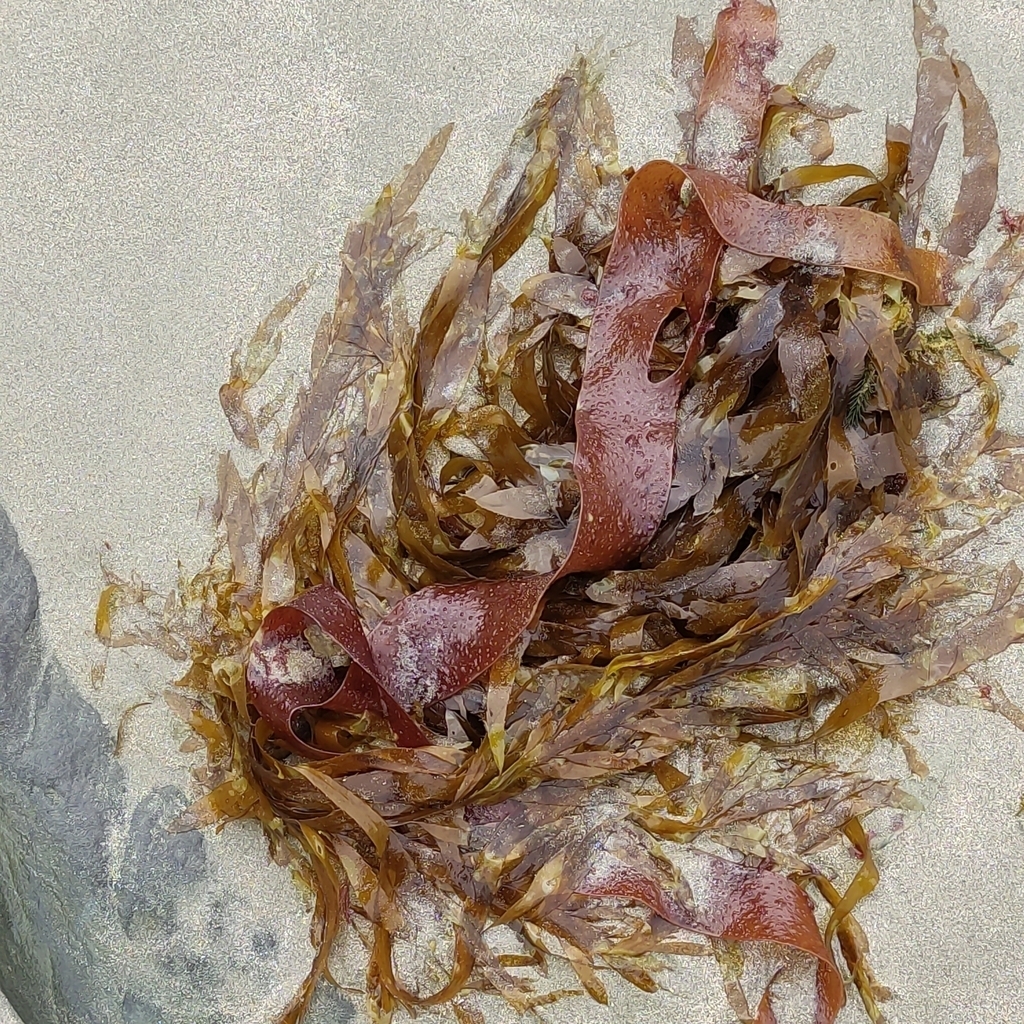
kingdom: Chromista
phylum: Ochrophyta
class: Phaeophyceae
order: Desmarestiales
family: Desmarestiaceae
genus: Desmarestia
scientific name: Desmarestia ligulata
